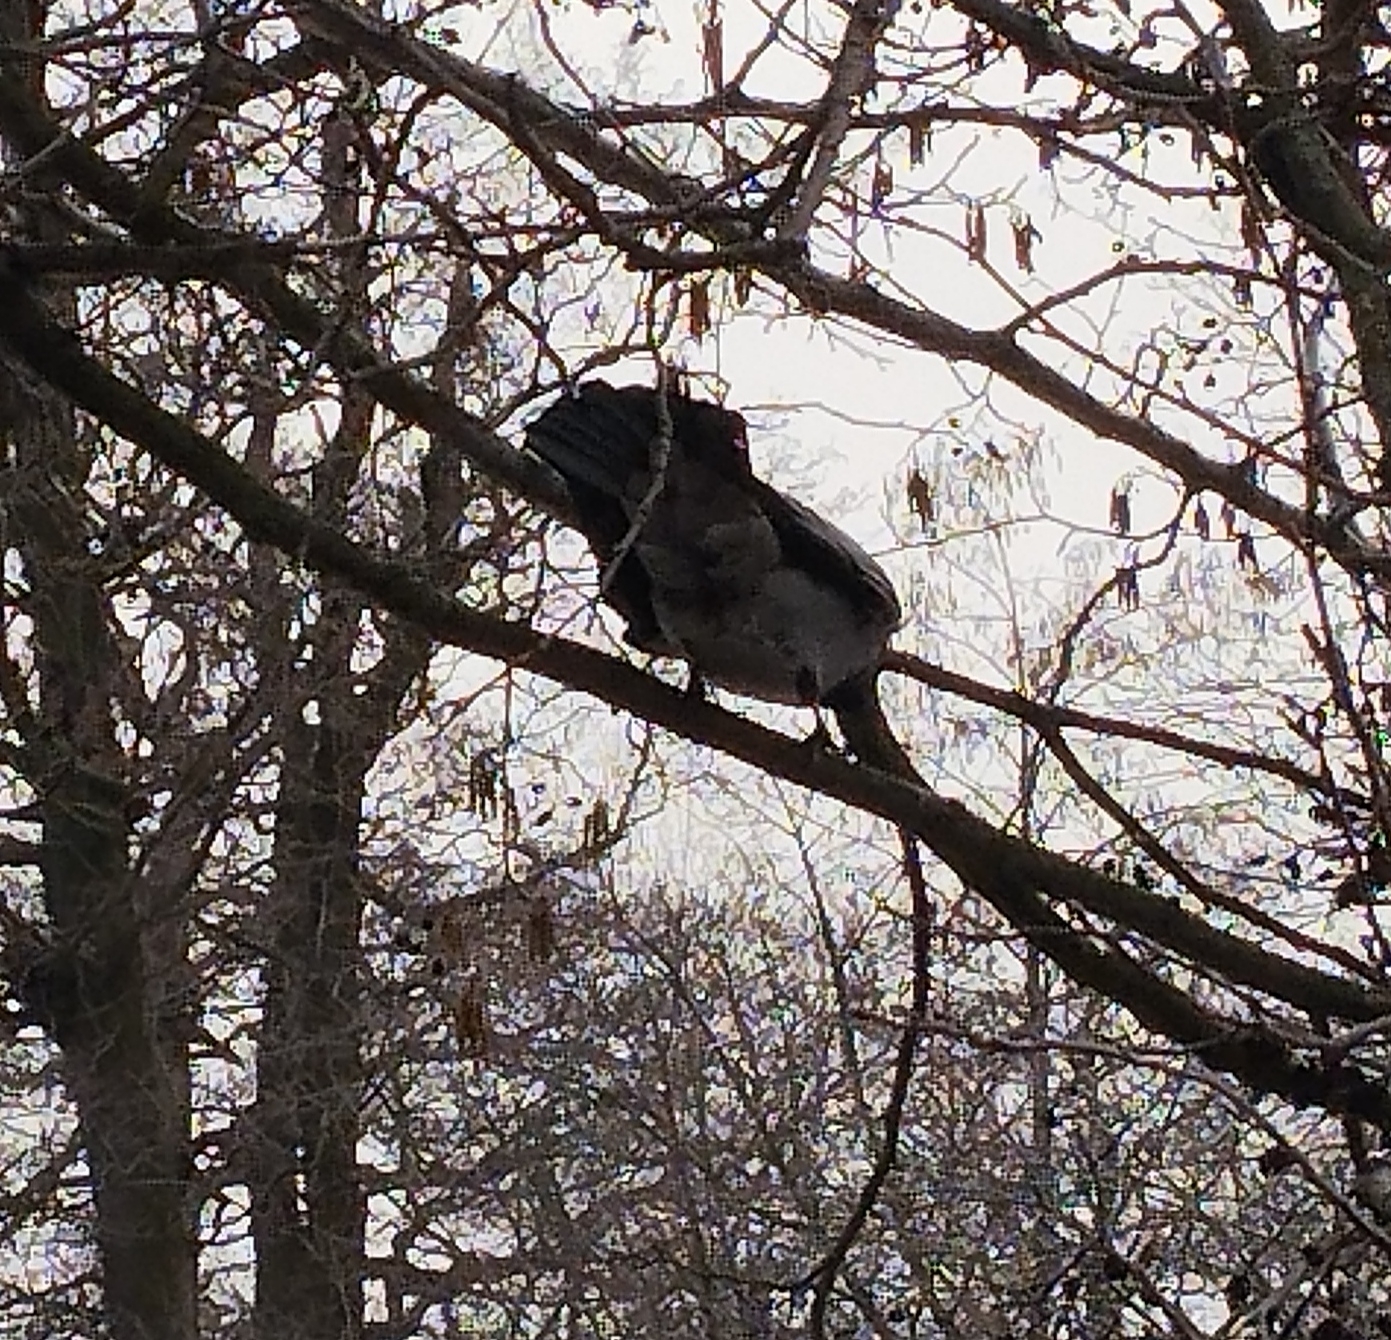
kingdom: Animalia
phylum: Chordata
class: Aves
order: Passeriformes
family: Corvidae
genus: Corvus
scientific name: Corvus cornix
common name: Hooded crow
